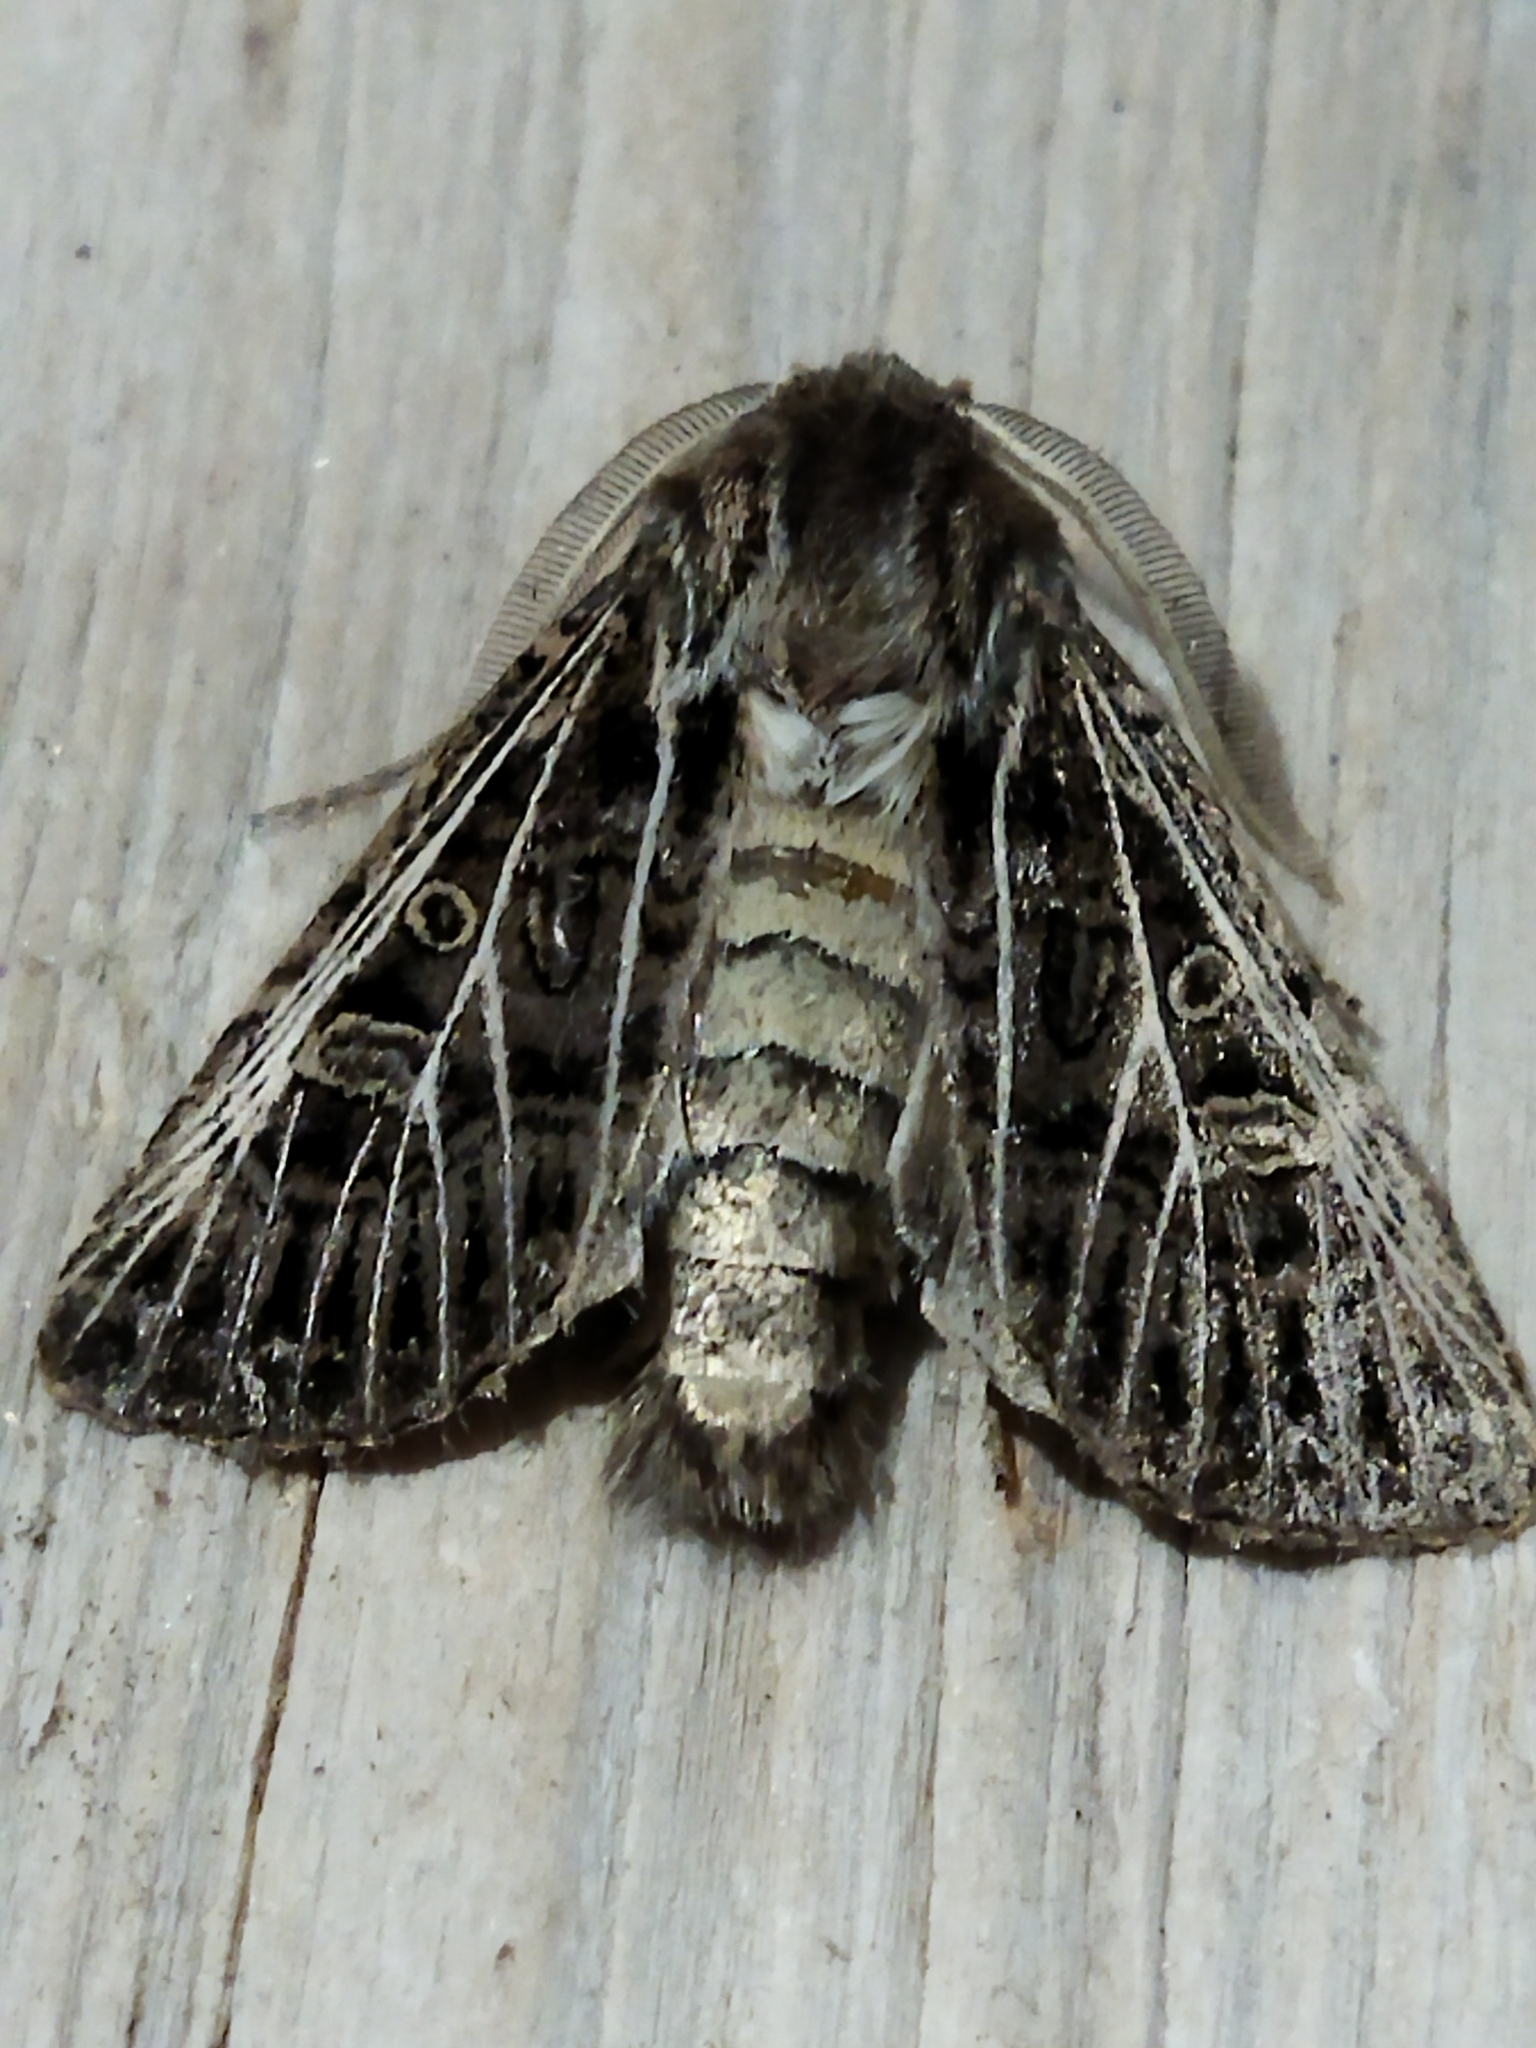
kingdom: Animalia
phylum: Arthropoda
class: Insecta
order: Lepidoptera
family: Noctuidae
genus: Tholera
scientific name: Tholera decimalis
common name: Feathered gothic
